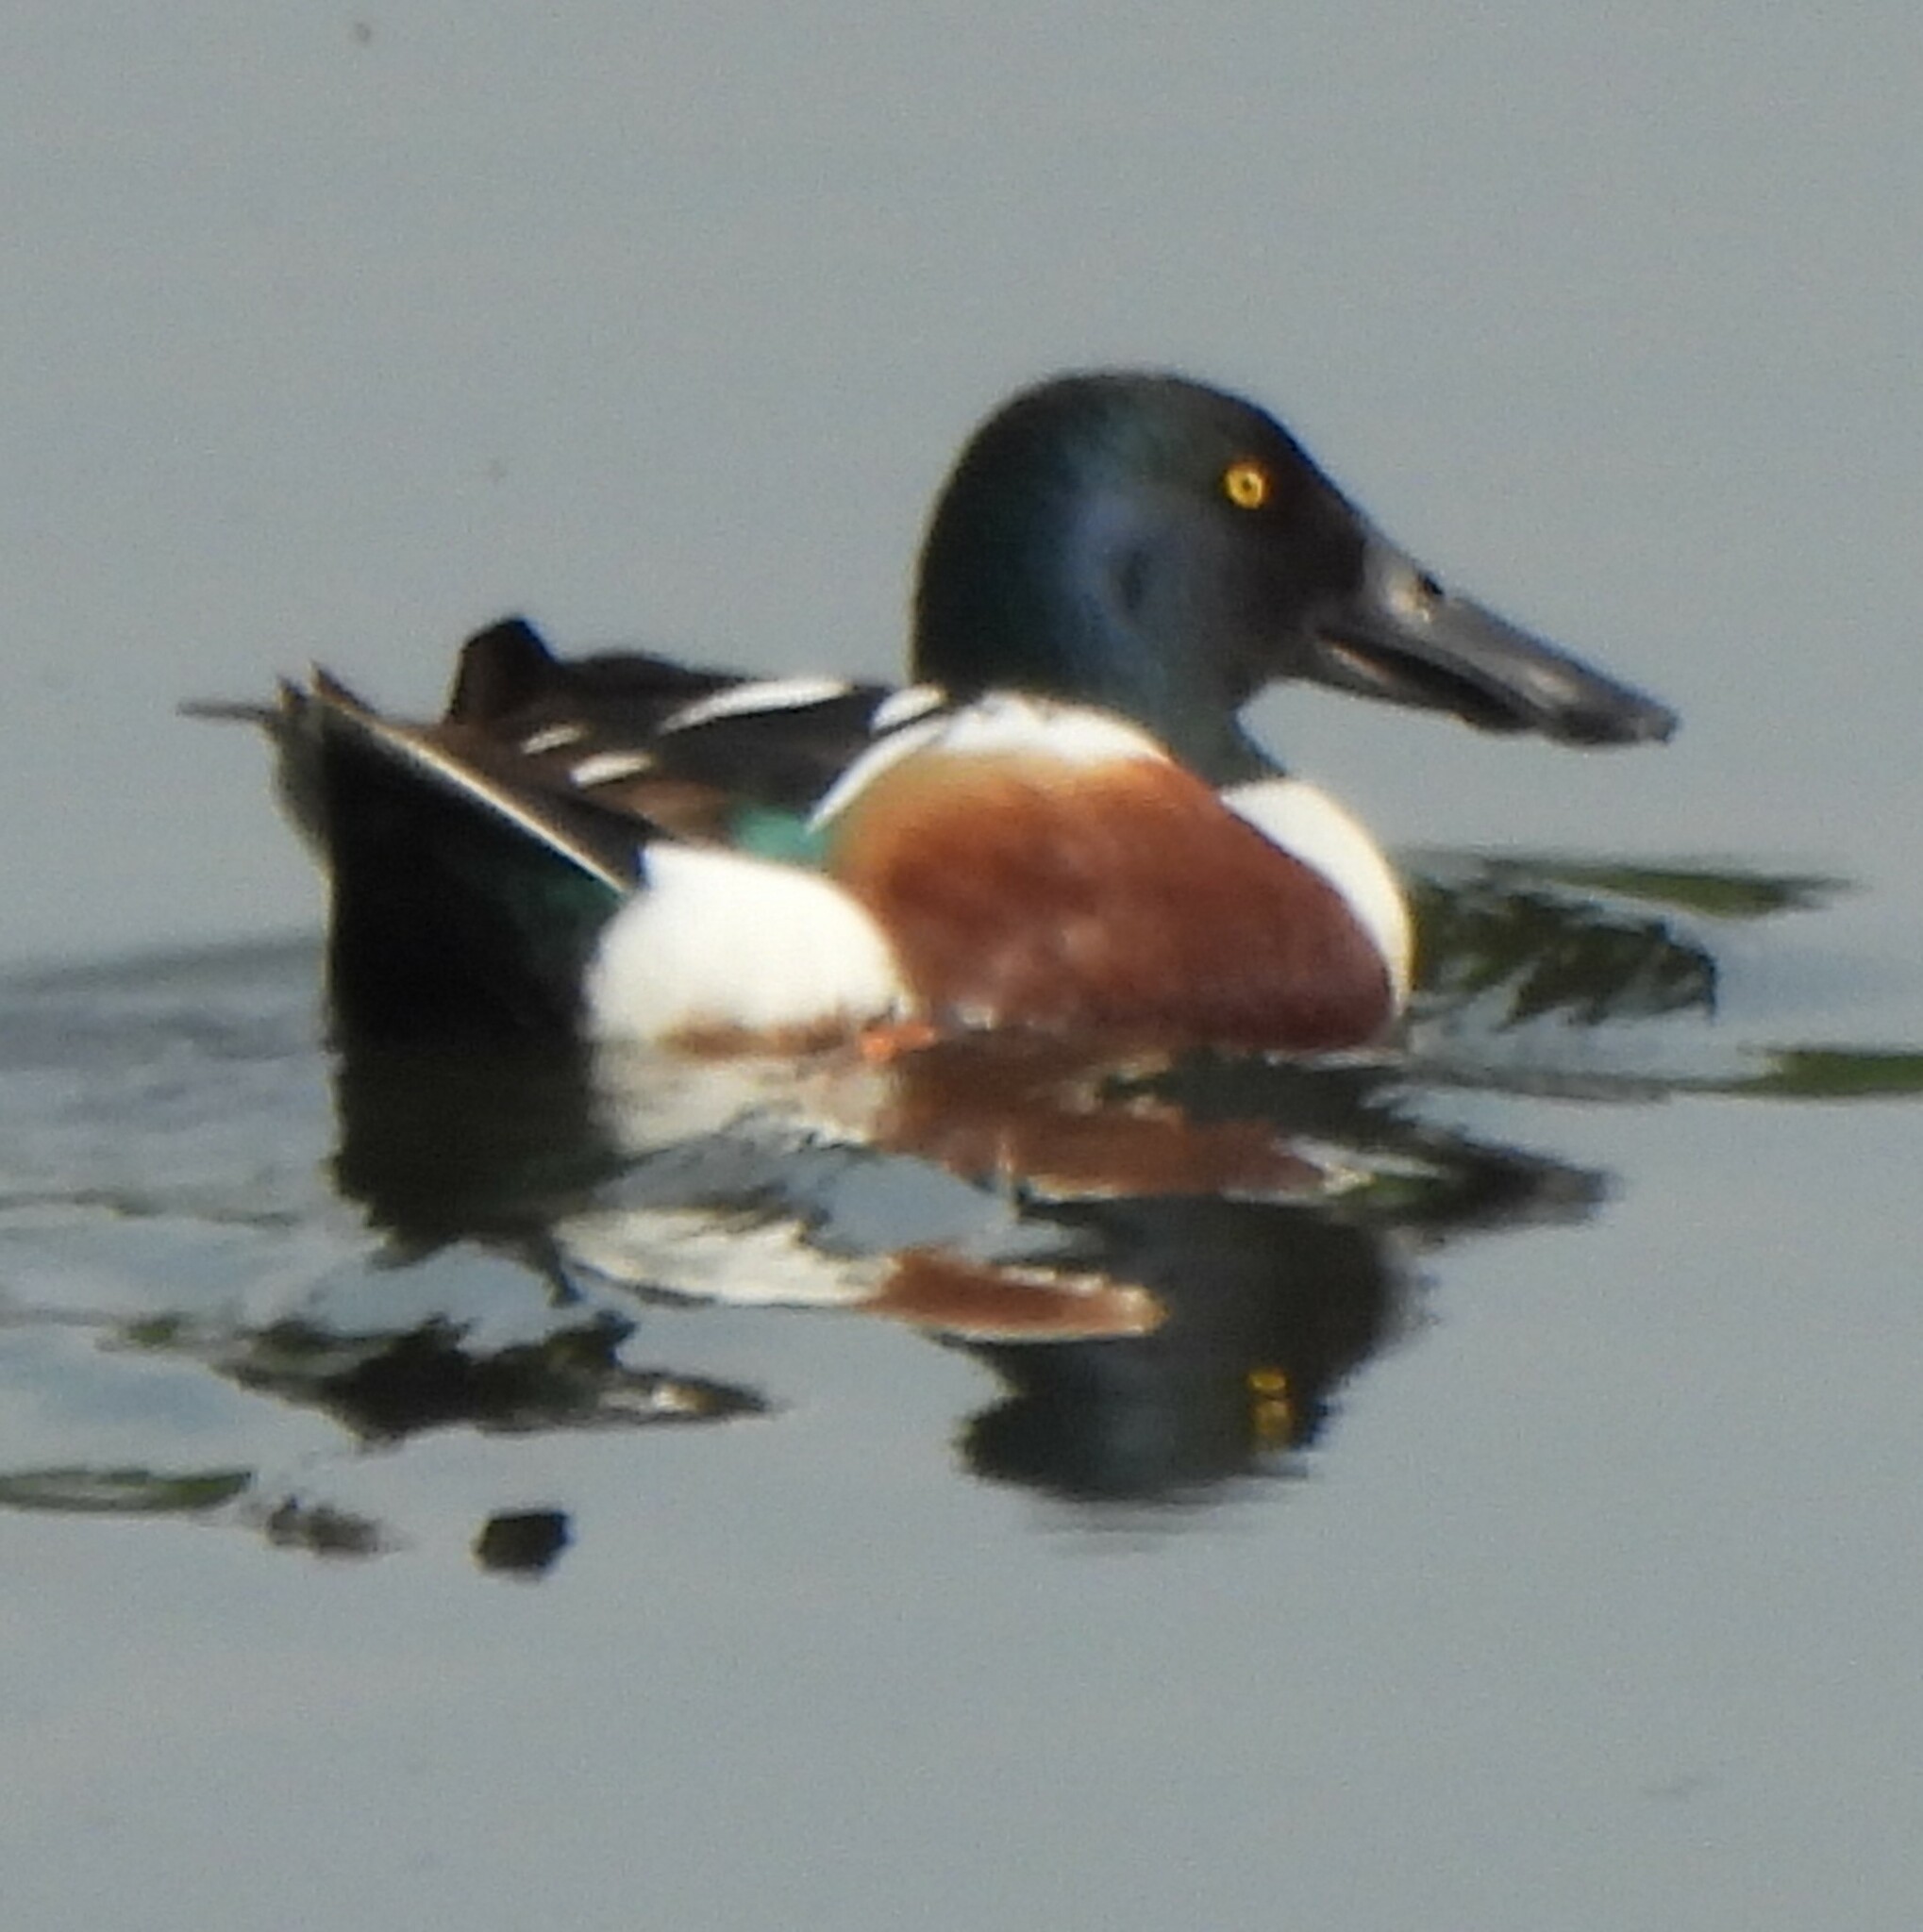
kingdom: Animalia
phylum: Chordata
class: Aves
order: Anseriformes
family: Anatidae
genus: Spatula
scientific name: Spatula clypeata
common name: Northern shoveler
